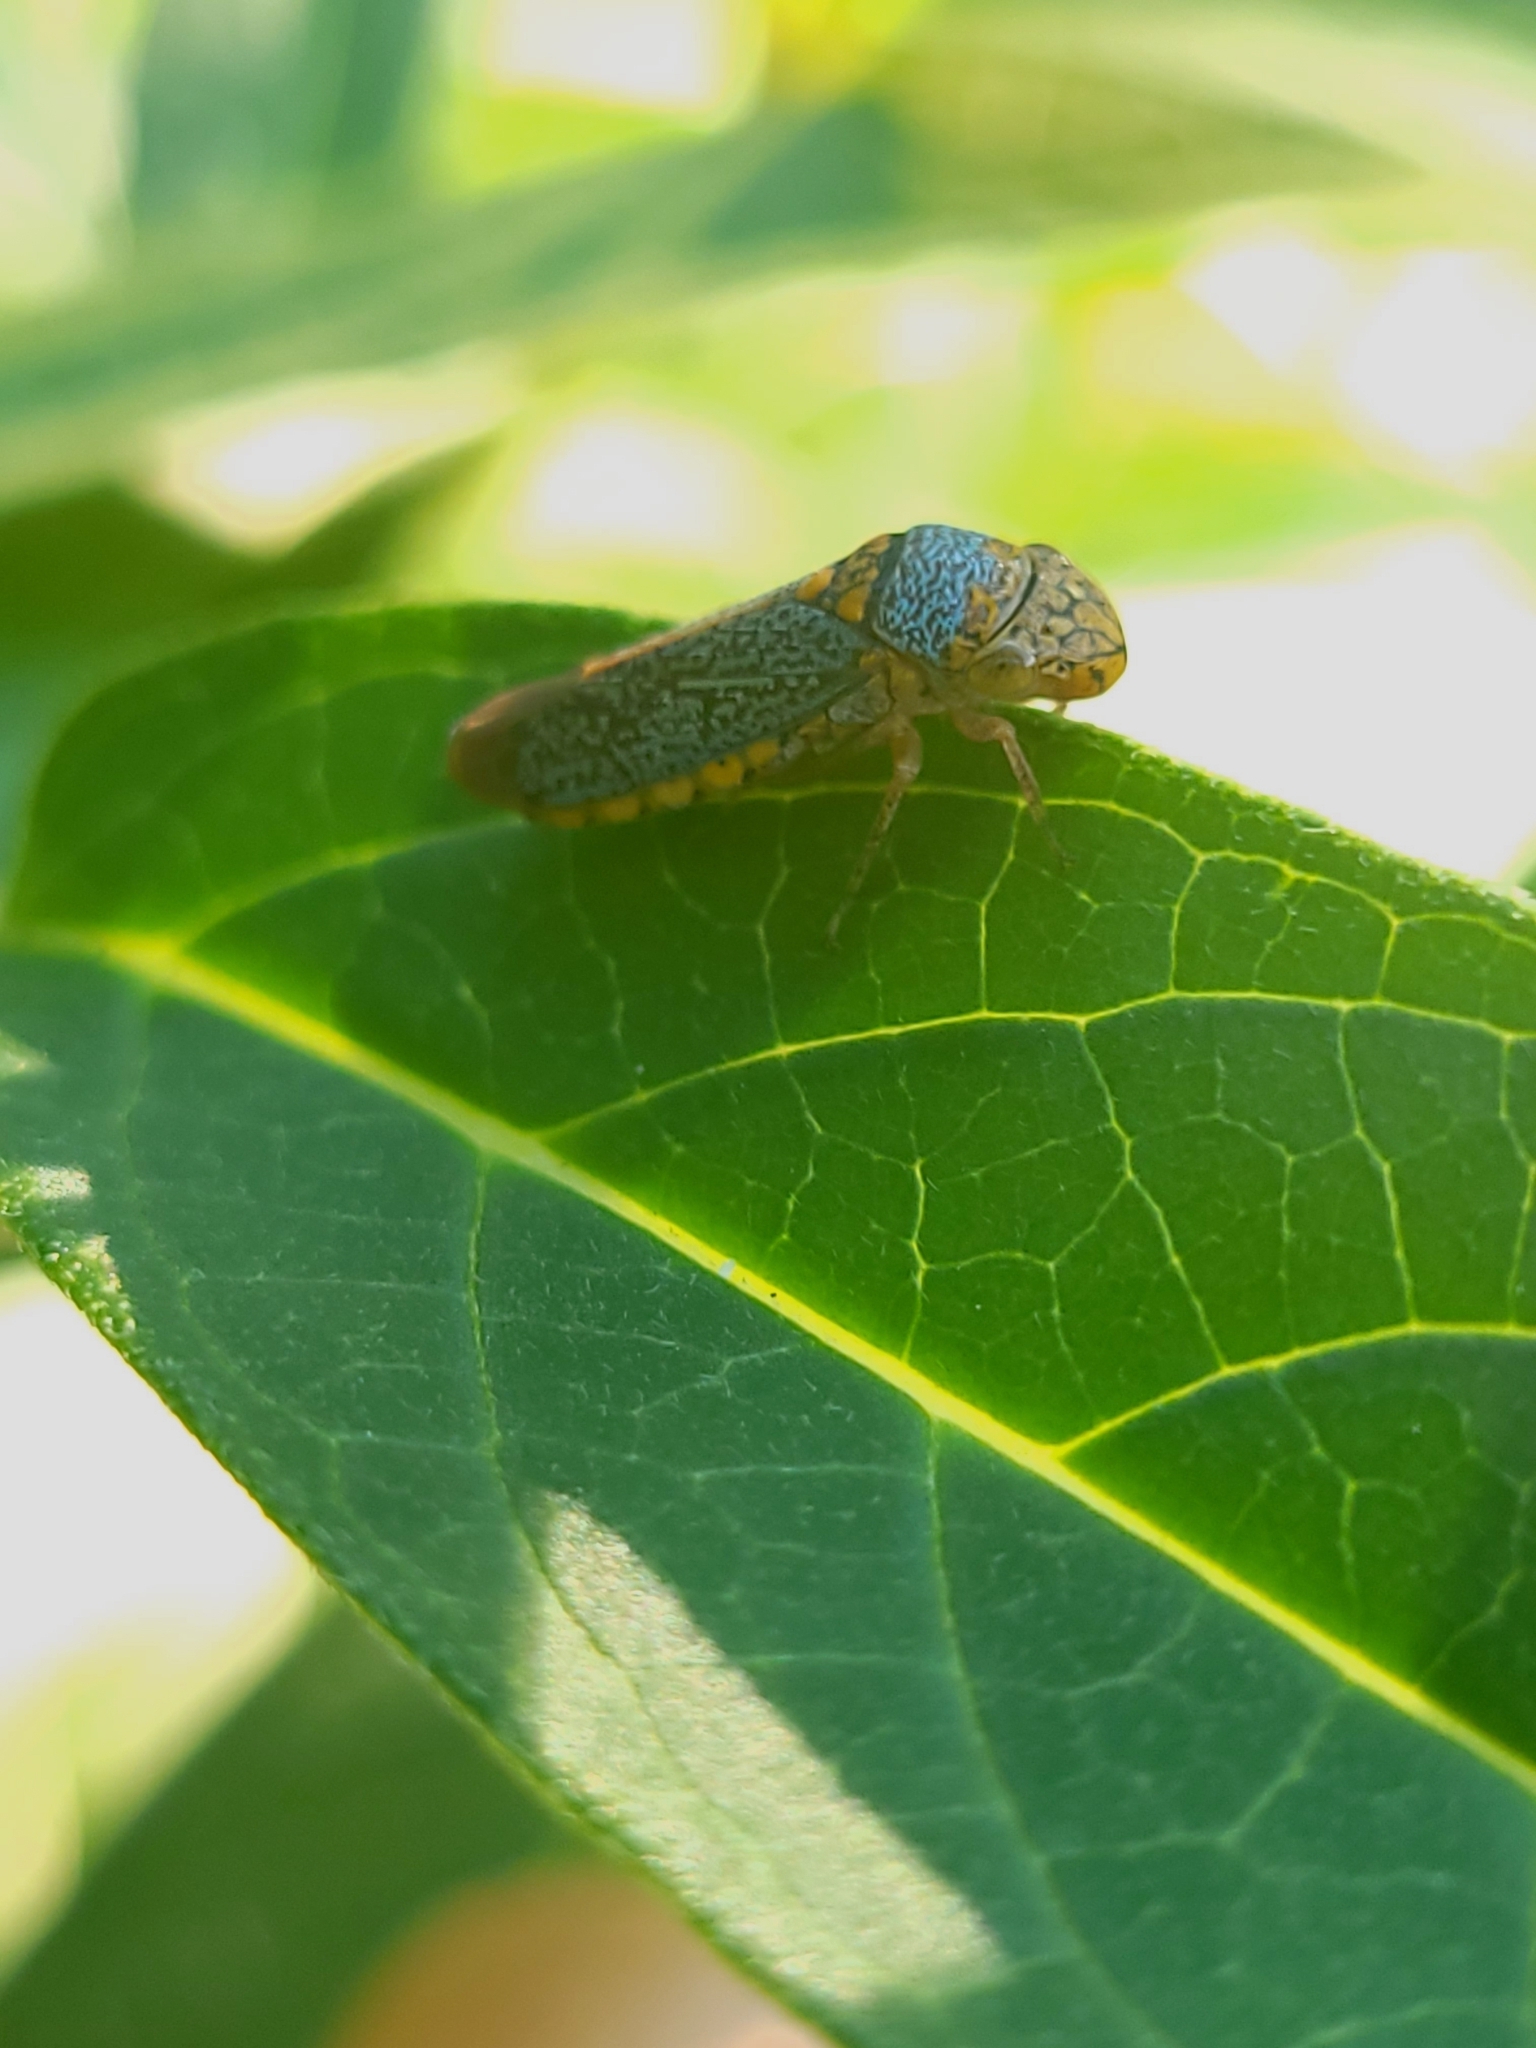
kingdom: Animalia
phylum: Arthropoda
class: Insecta
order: Hemiptera
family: Cicadellidae
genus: Oncometopia
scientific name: Oncometopia orbona
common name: Broad-headed sharpshooter
